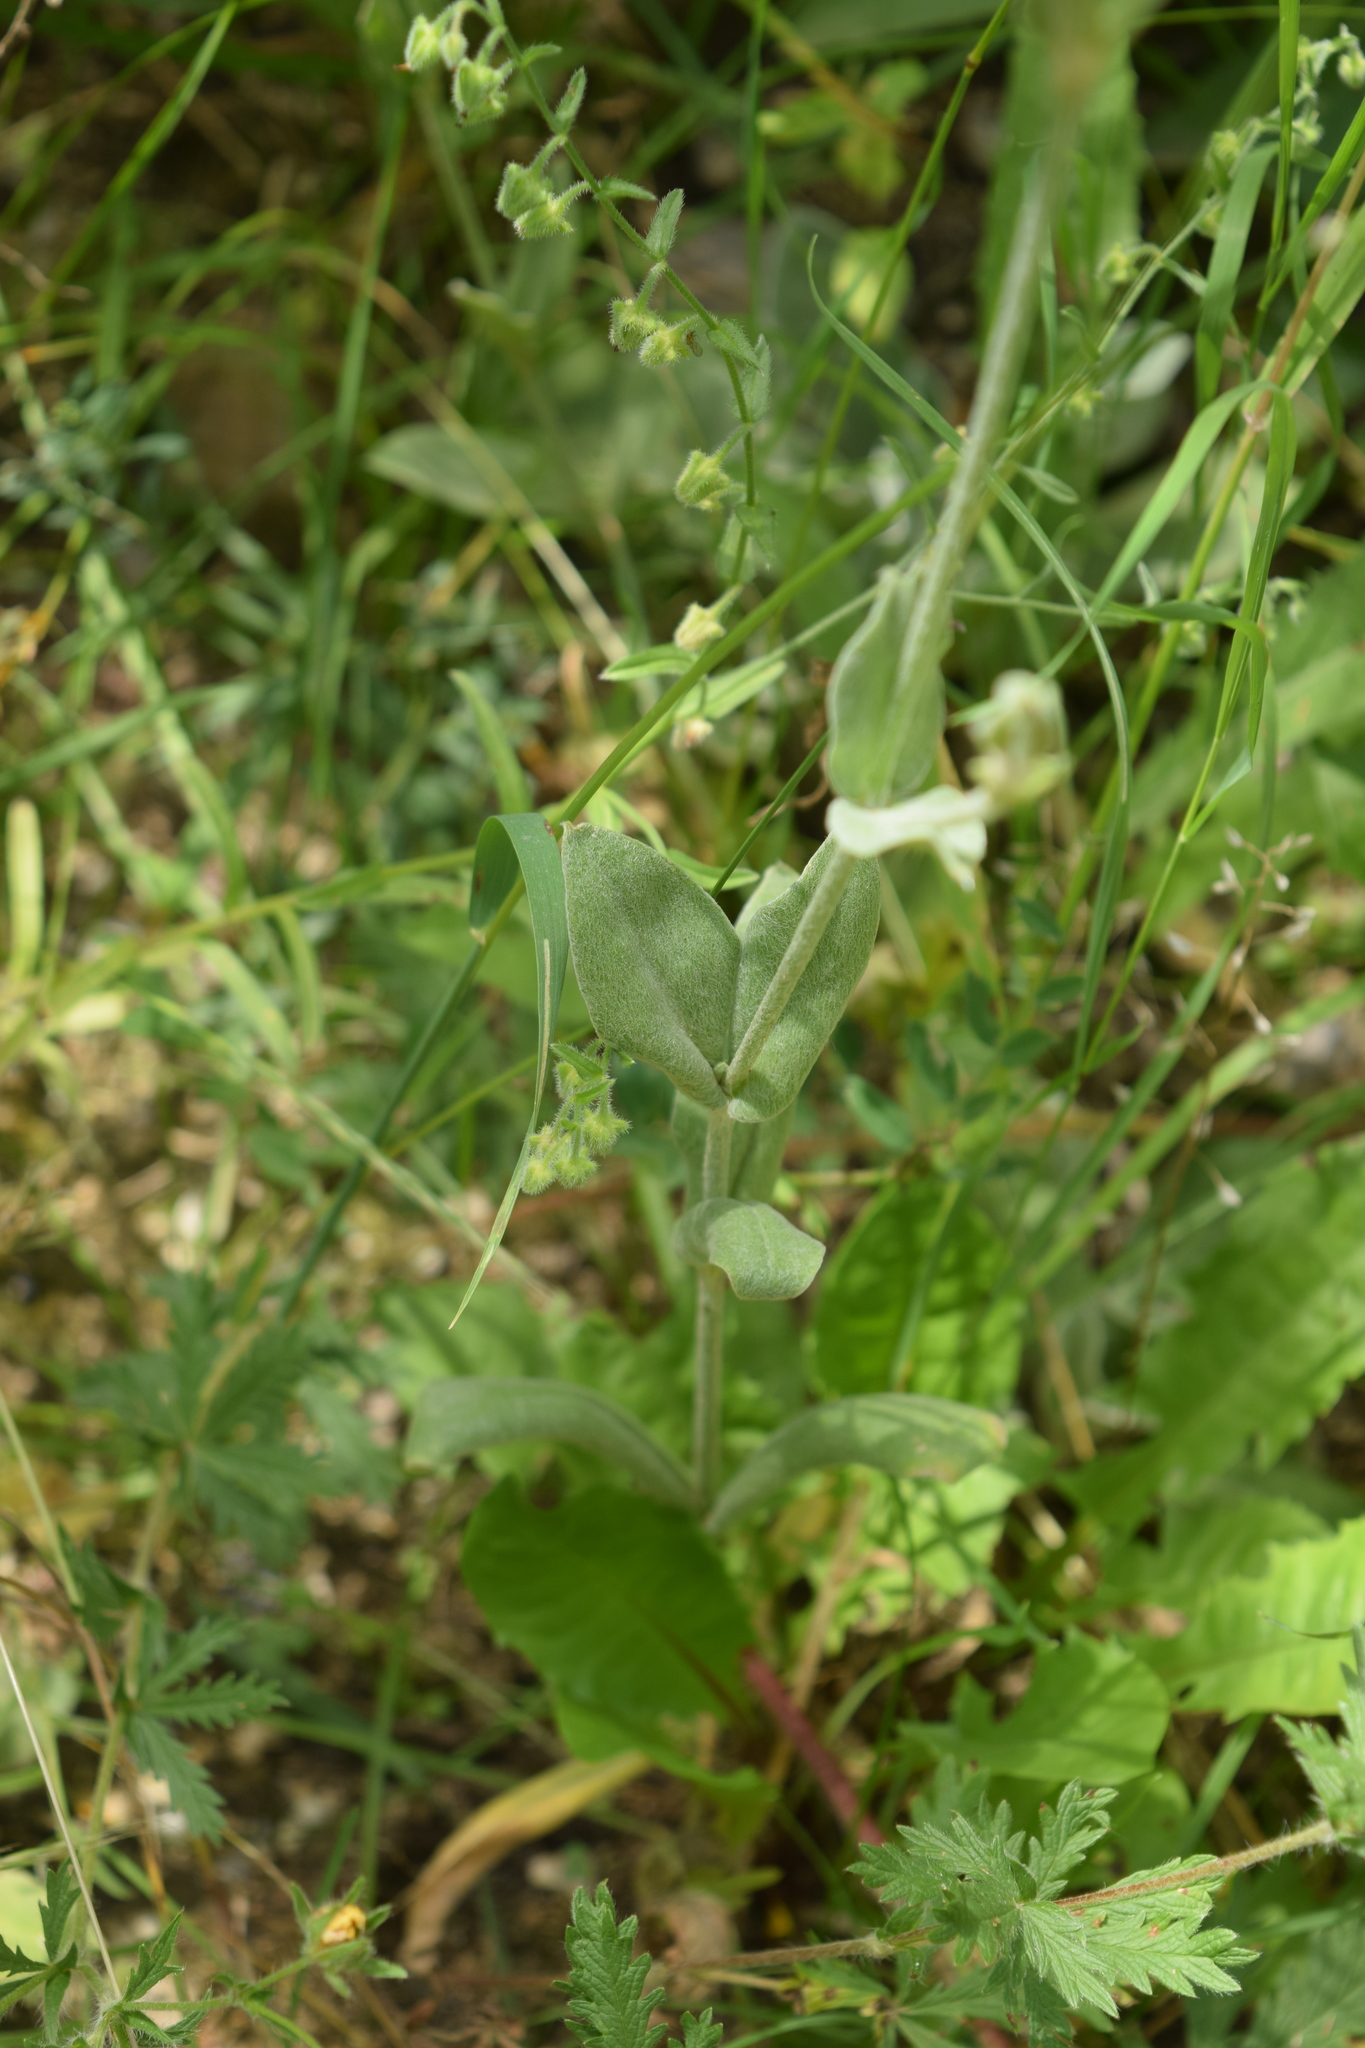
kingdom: Plantae
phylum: Tracheophyta
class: Magnoliopsida
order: Caryophyllales
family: Caryophyllaceae
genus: Silene
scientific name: Silene coronaria
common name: Rose campion
